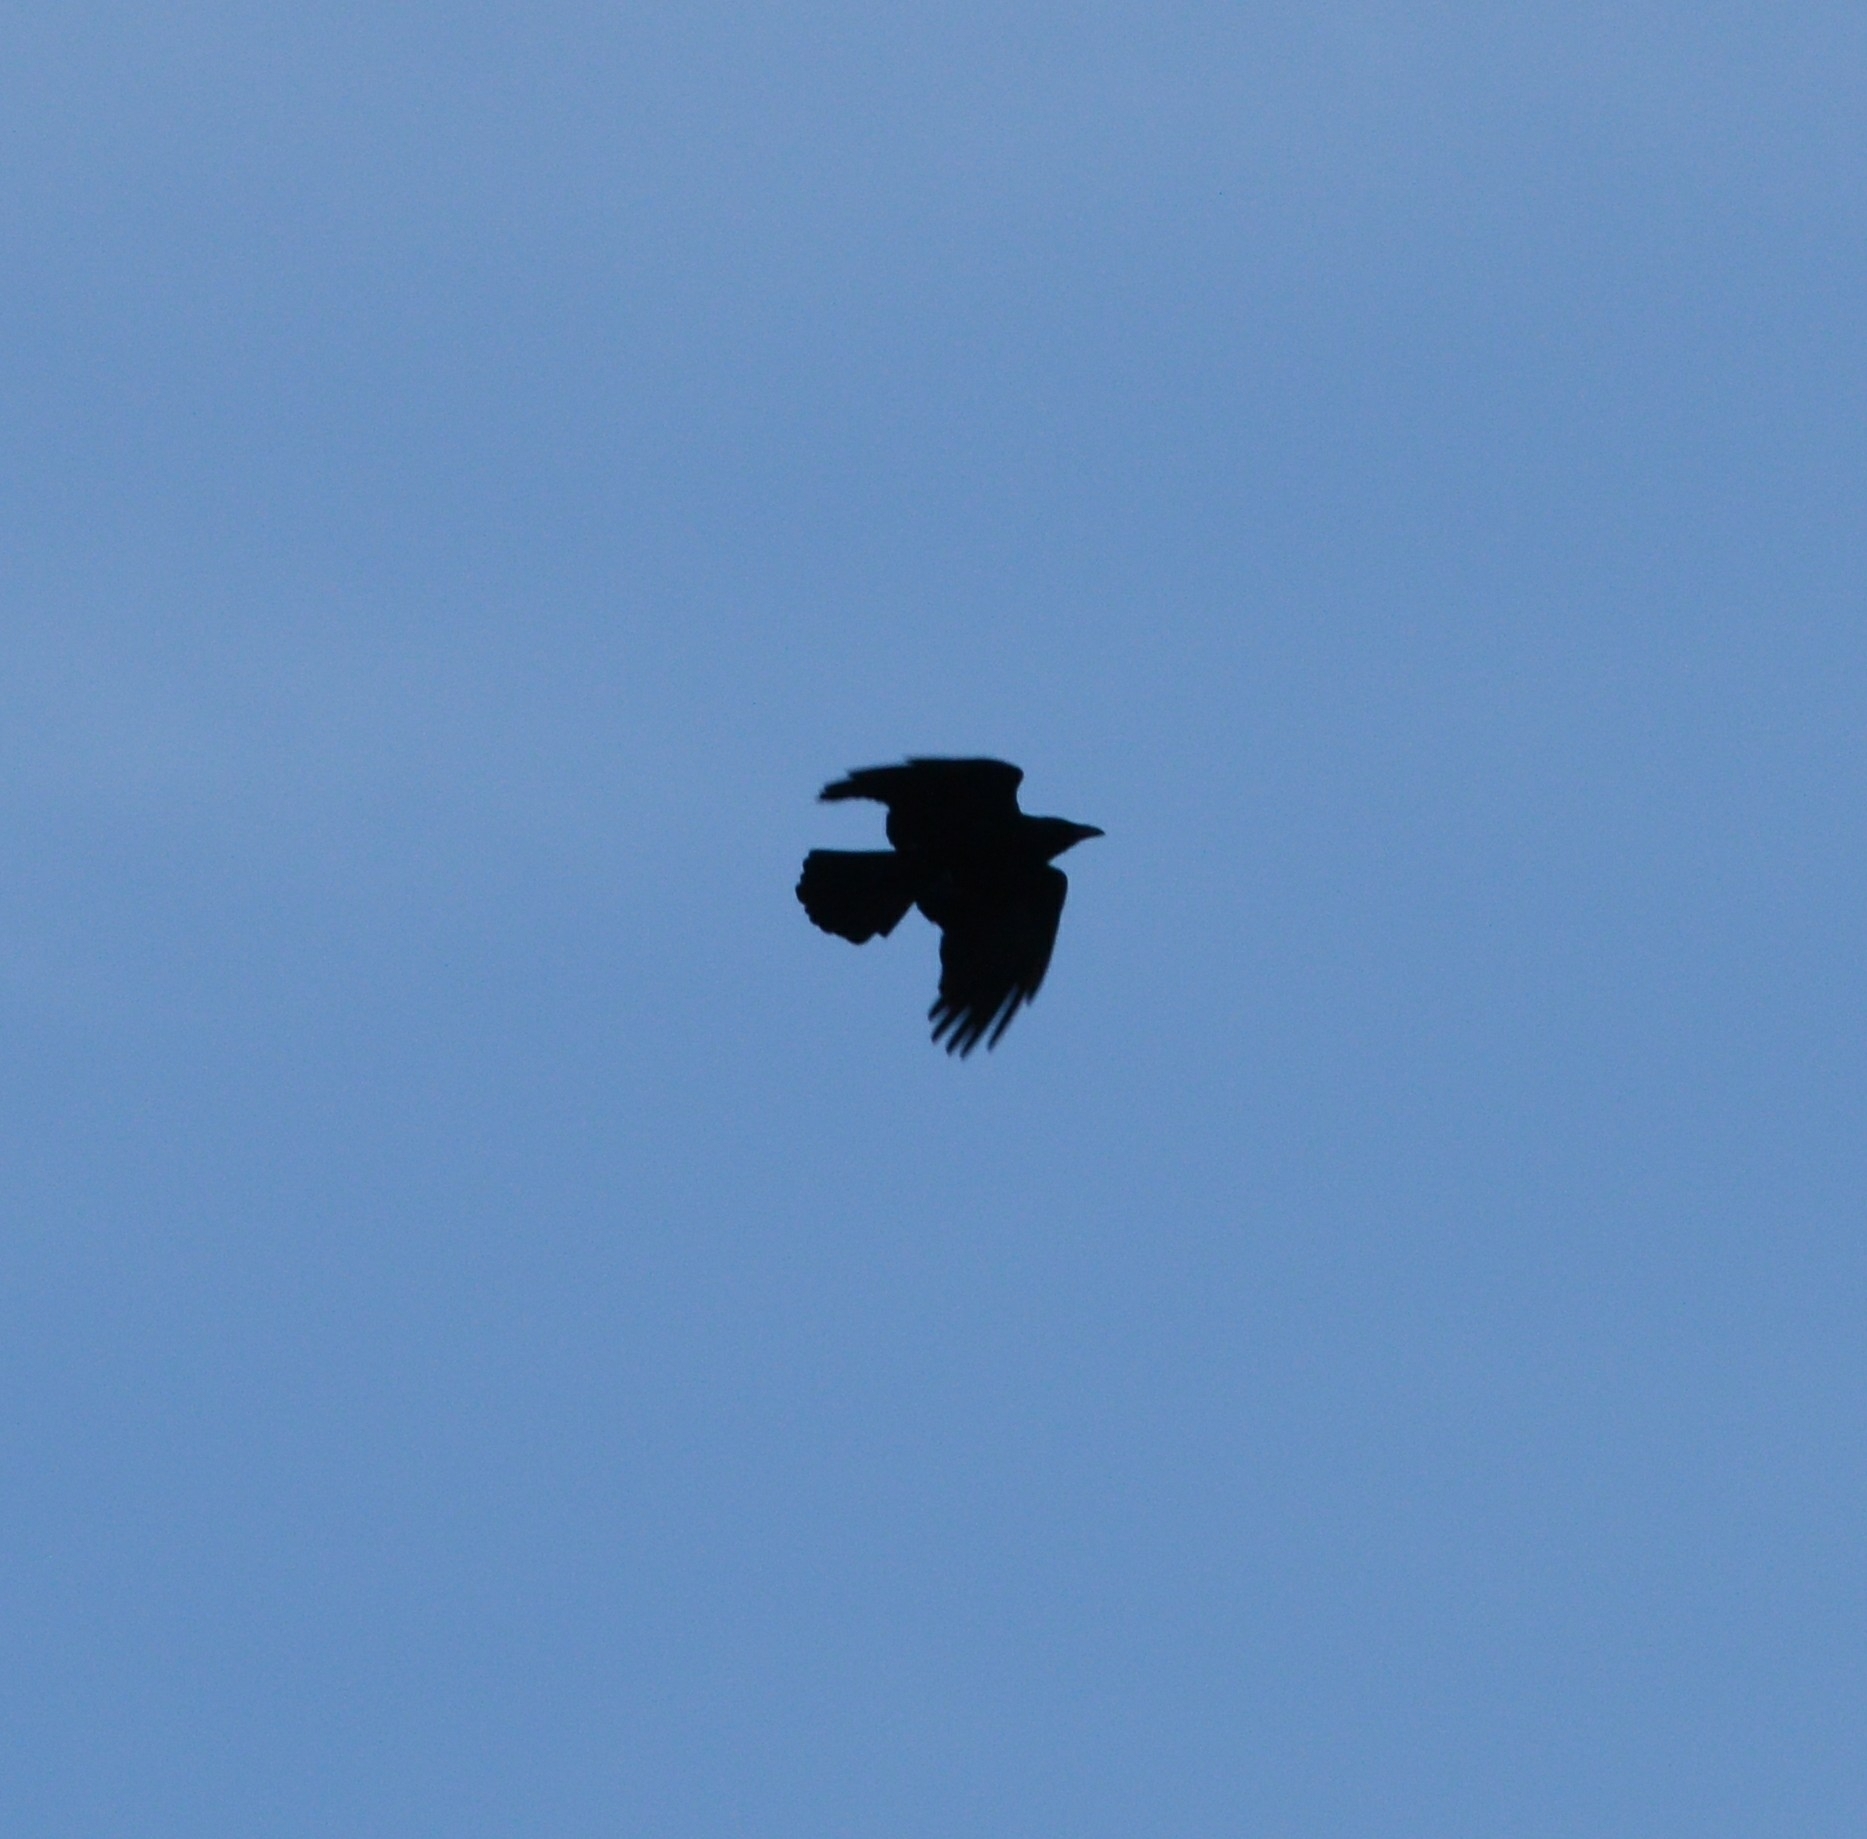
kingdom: Animalia
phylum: Chordata
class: Aves
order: Passeriformes
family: Corvidae
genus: Corvus
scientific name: Corvus corone
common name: Carrion crow
